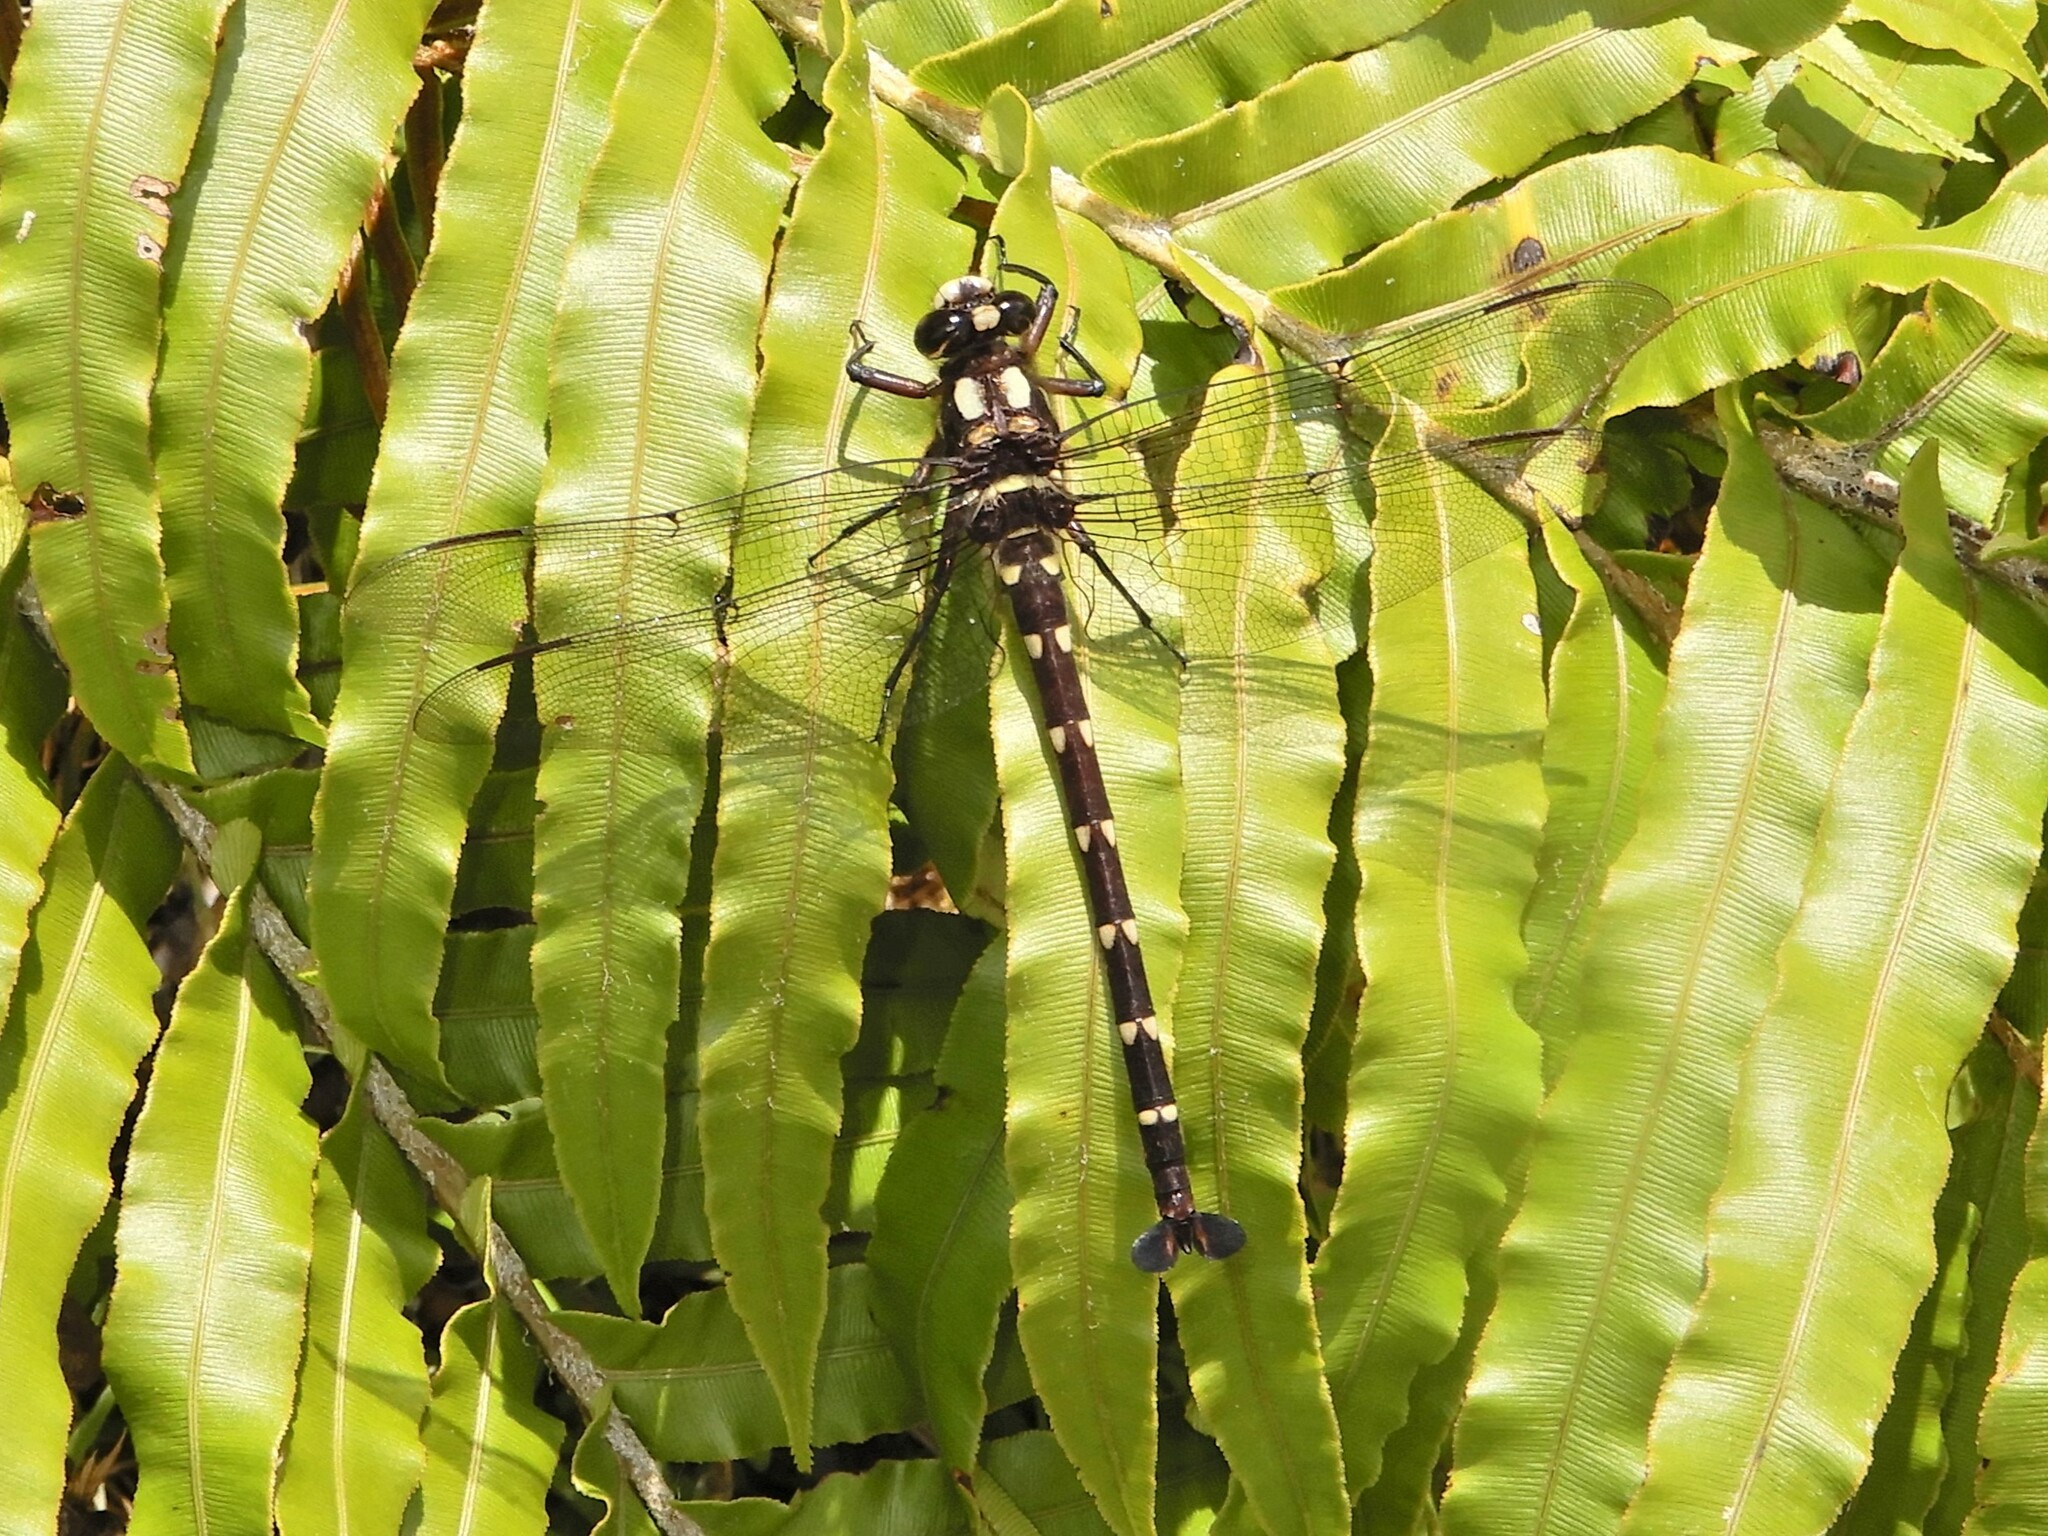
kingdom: Animalia
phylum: Arthropoda
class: Insecta
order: Odonata
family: Petaluridae
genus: Uropetala
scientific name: Uropetala carovei
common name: Bush giant dragonfly
